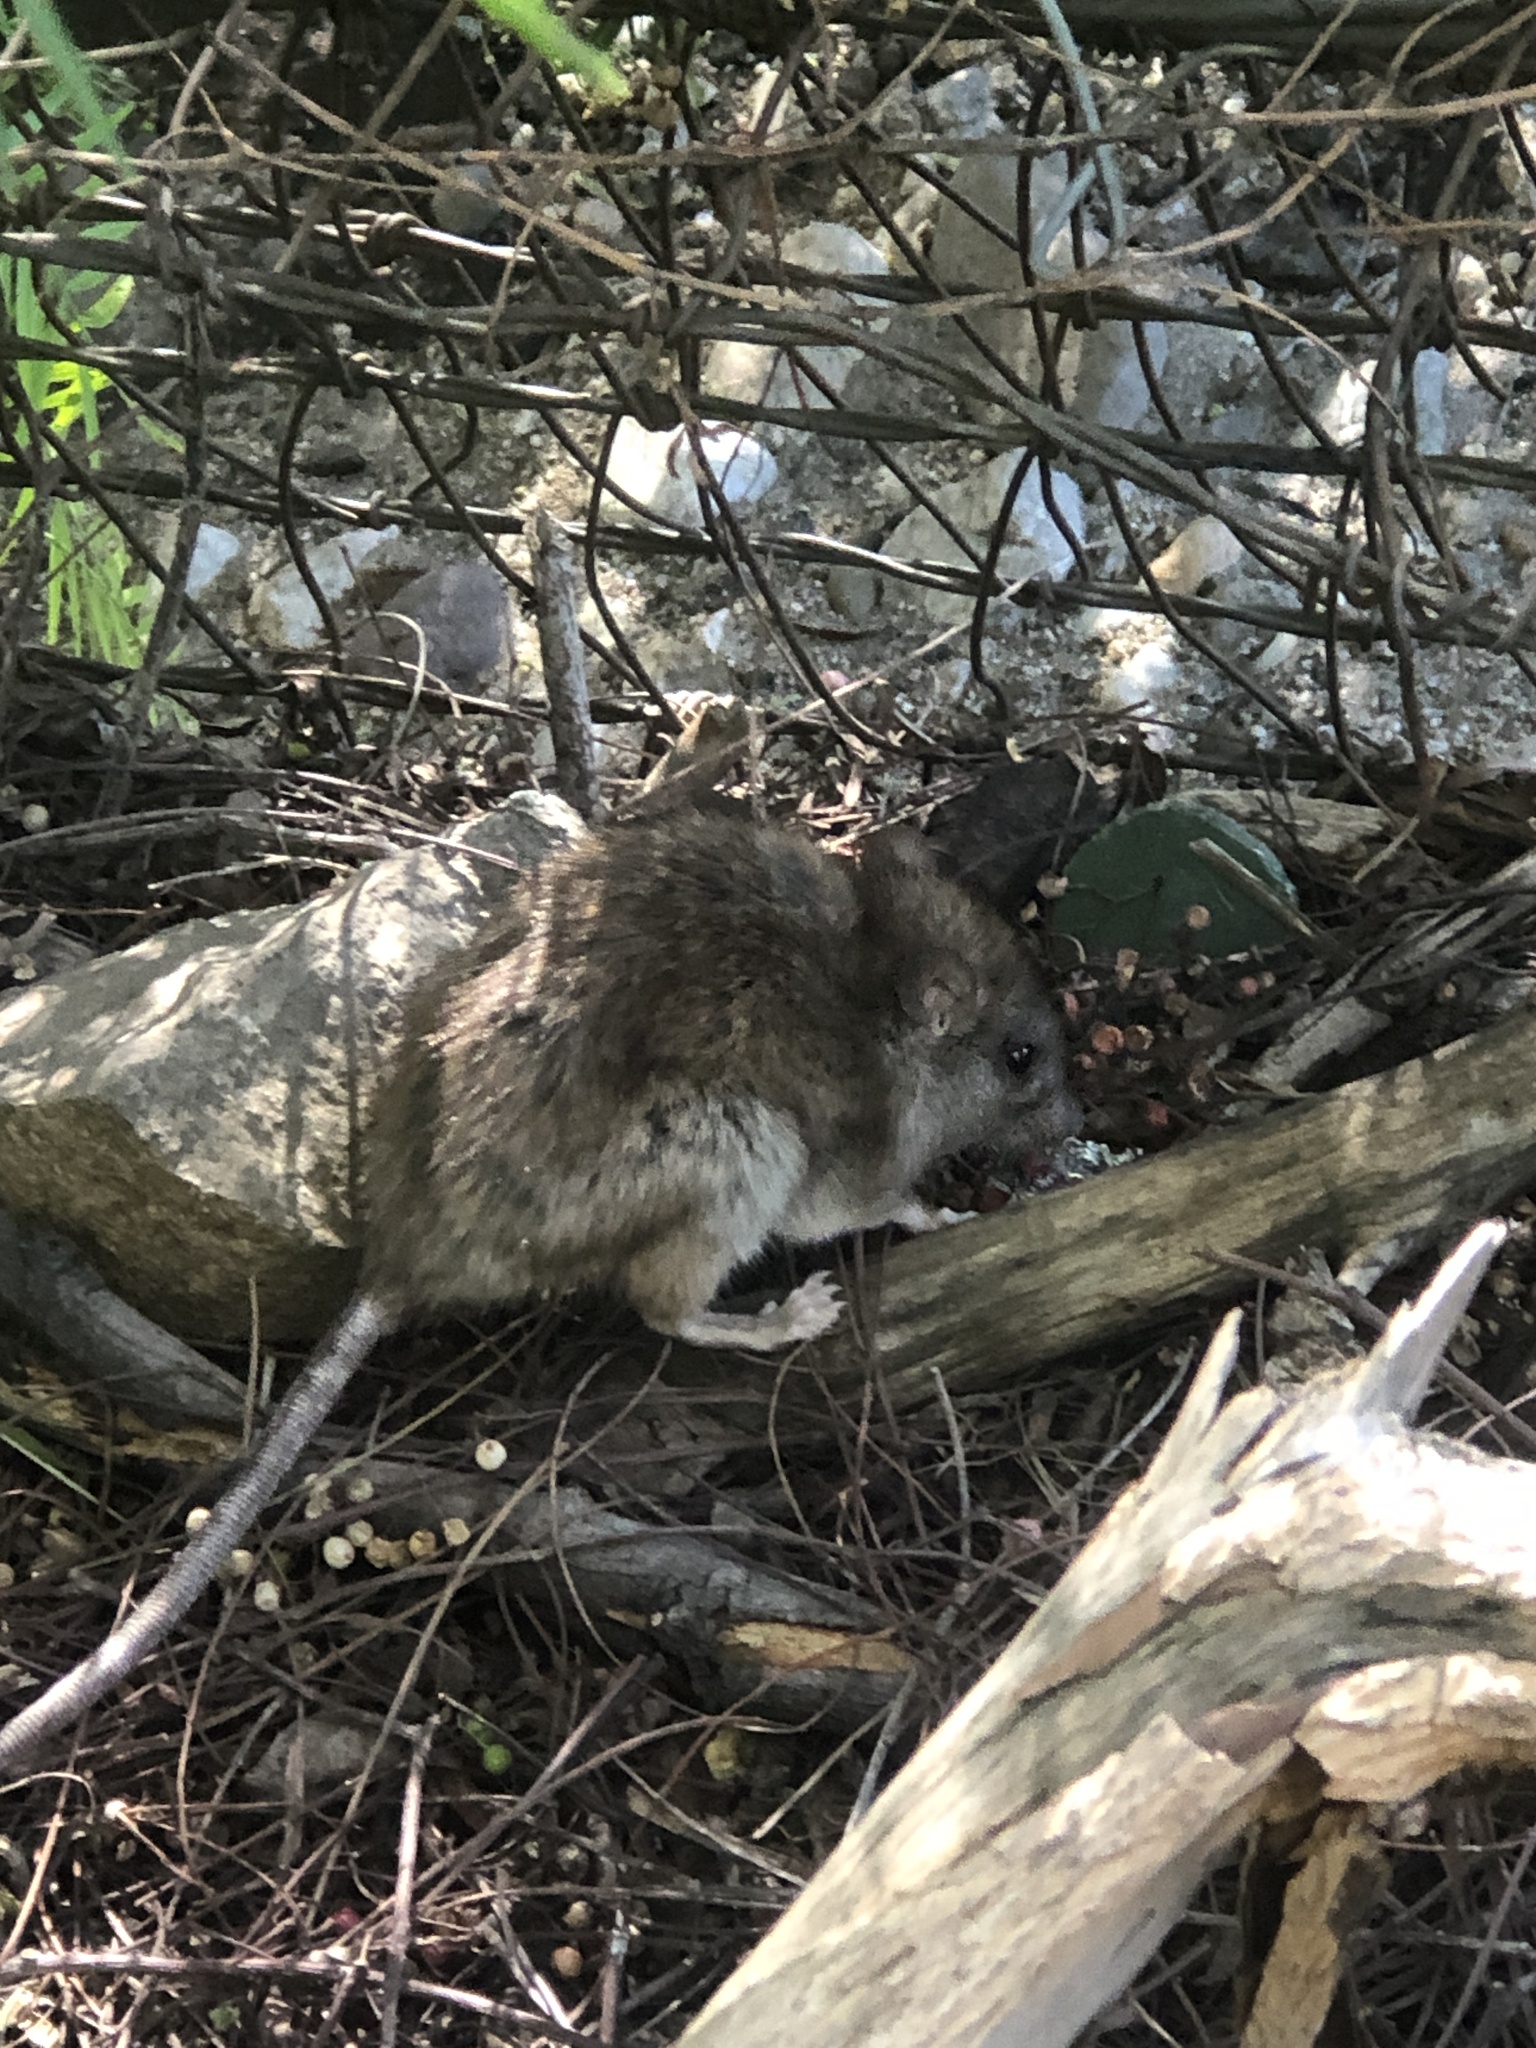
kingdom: Animalia
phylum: Chordata
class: Mammalia
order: Rodentia
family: Muridae
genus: Rattus
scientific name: Rattus norvegicus
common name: Brown rat
